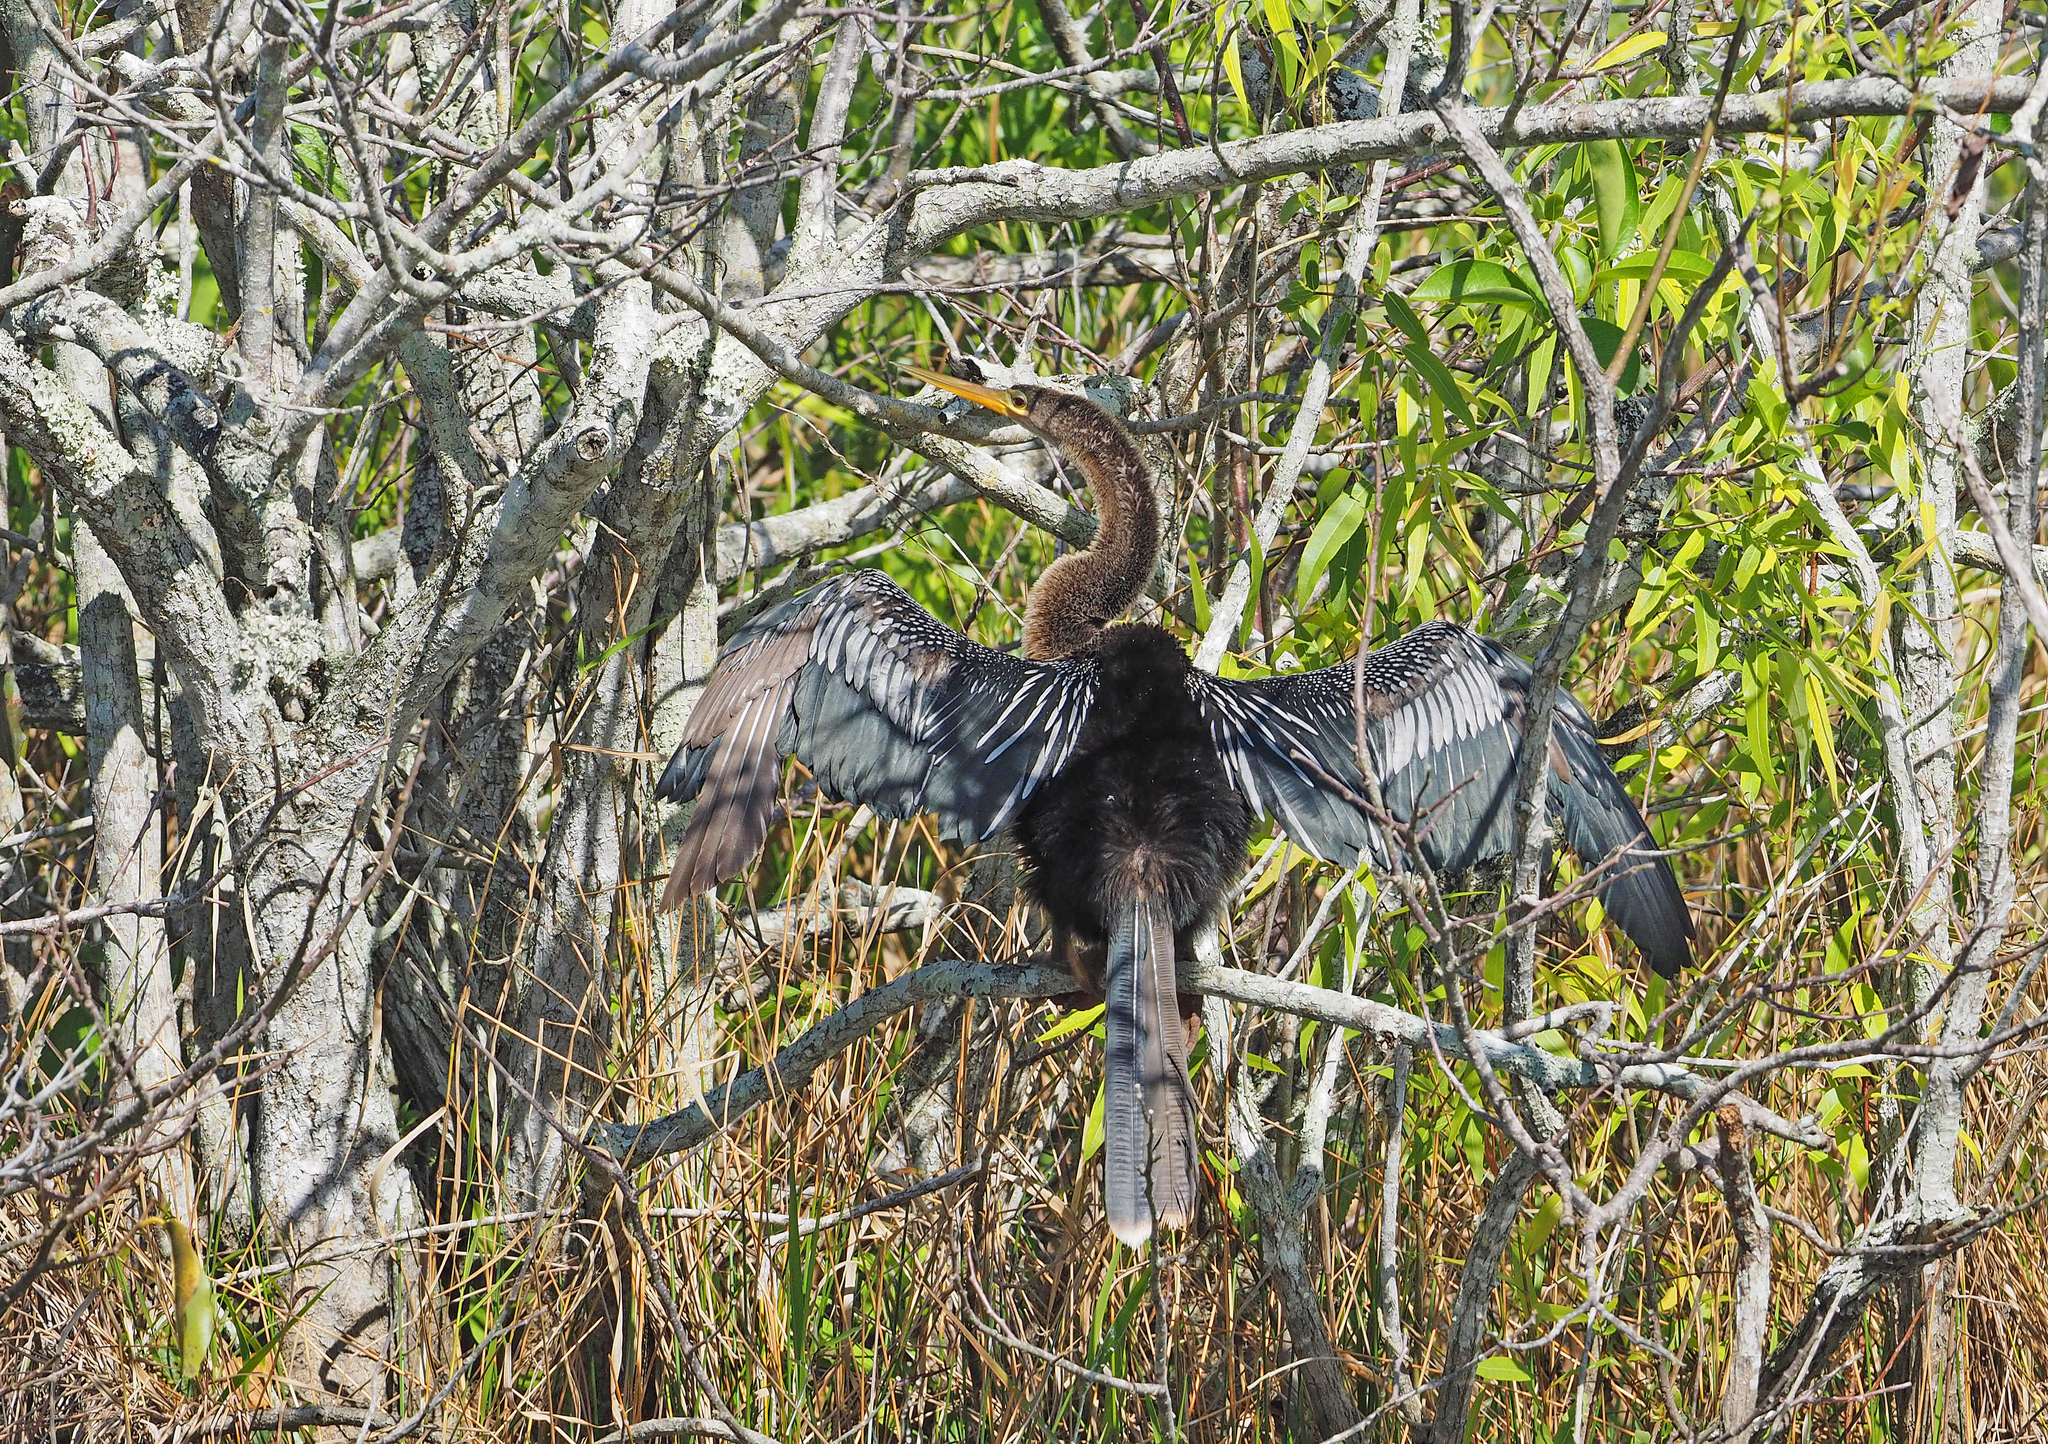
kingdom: Animalia
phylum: Chordata
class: Aves
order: Suliformes
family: Anhingidae
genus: Anhinga
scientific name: Anhinga anhinga
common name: Anhinga
